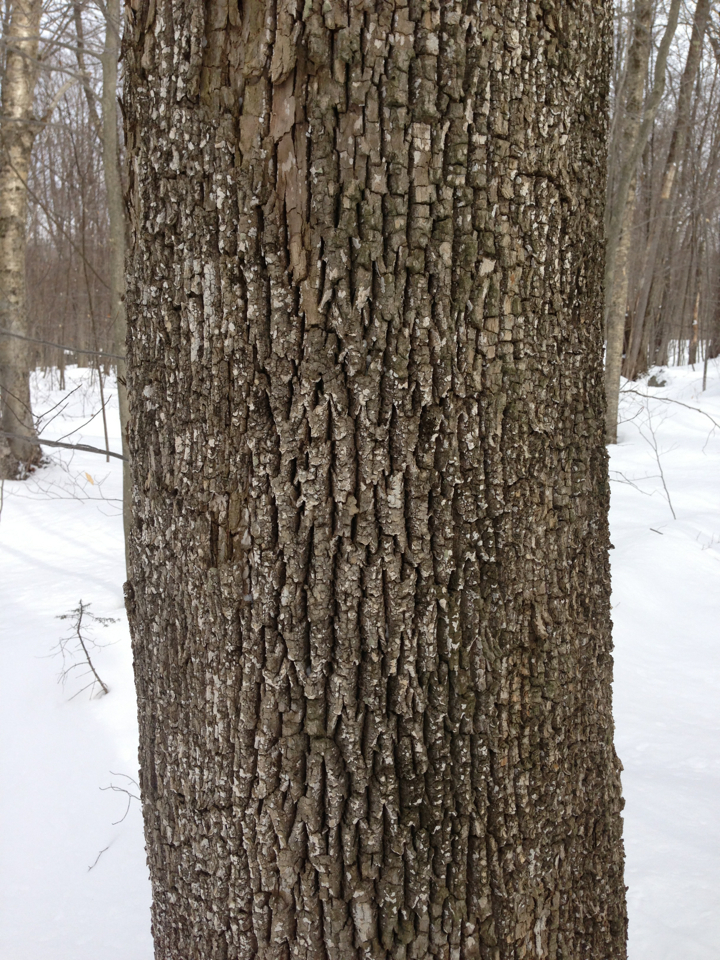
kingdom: Plantae
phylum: Tracheophyta
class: Magnoliopsida
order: Lamiales
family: Oleaceae
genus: Fraxinus
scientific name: Fraxinus americana
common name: White ash
